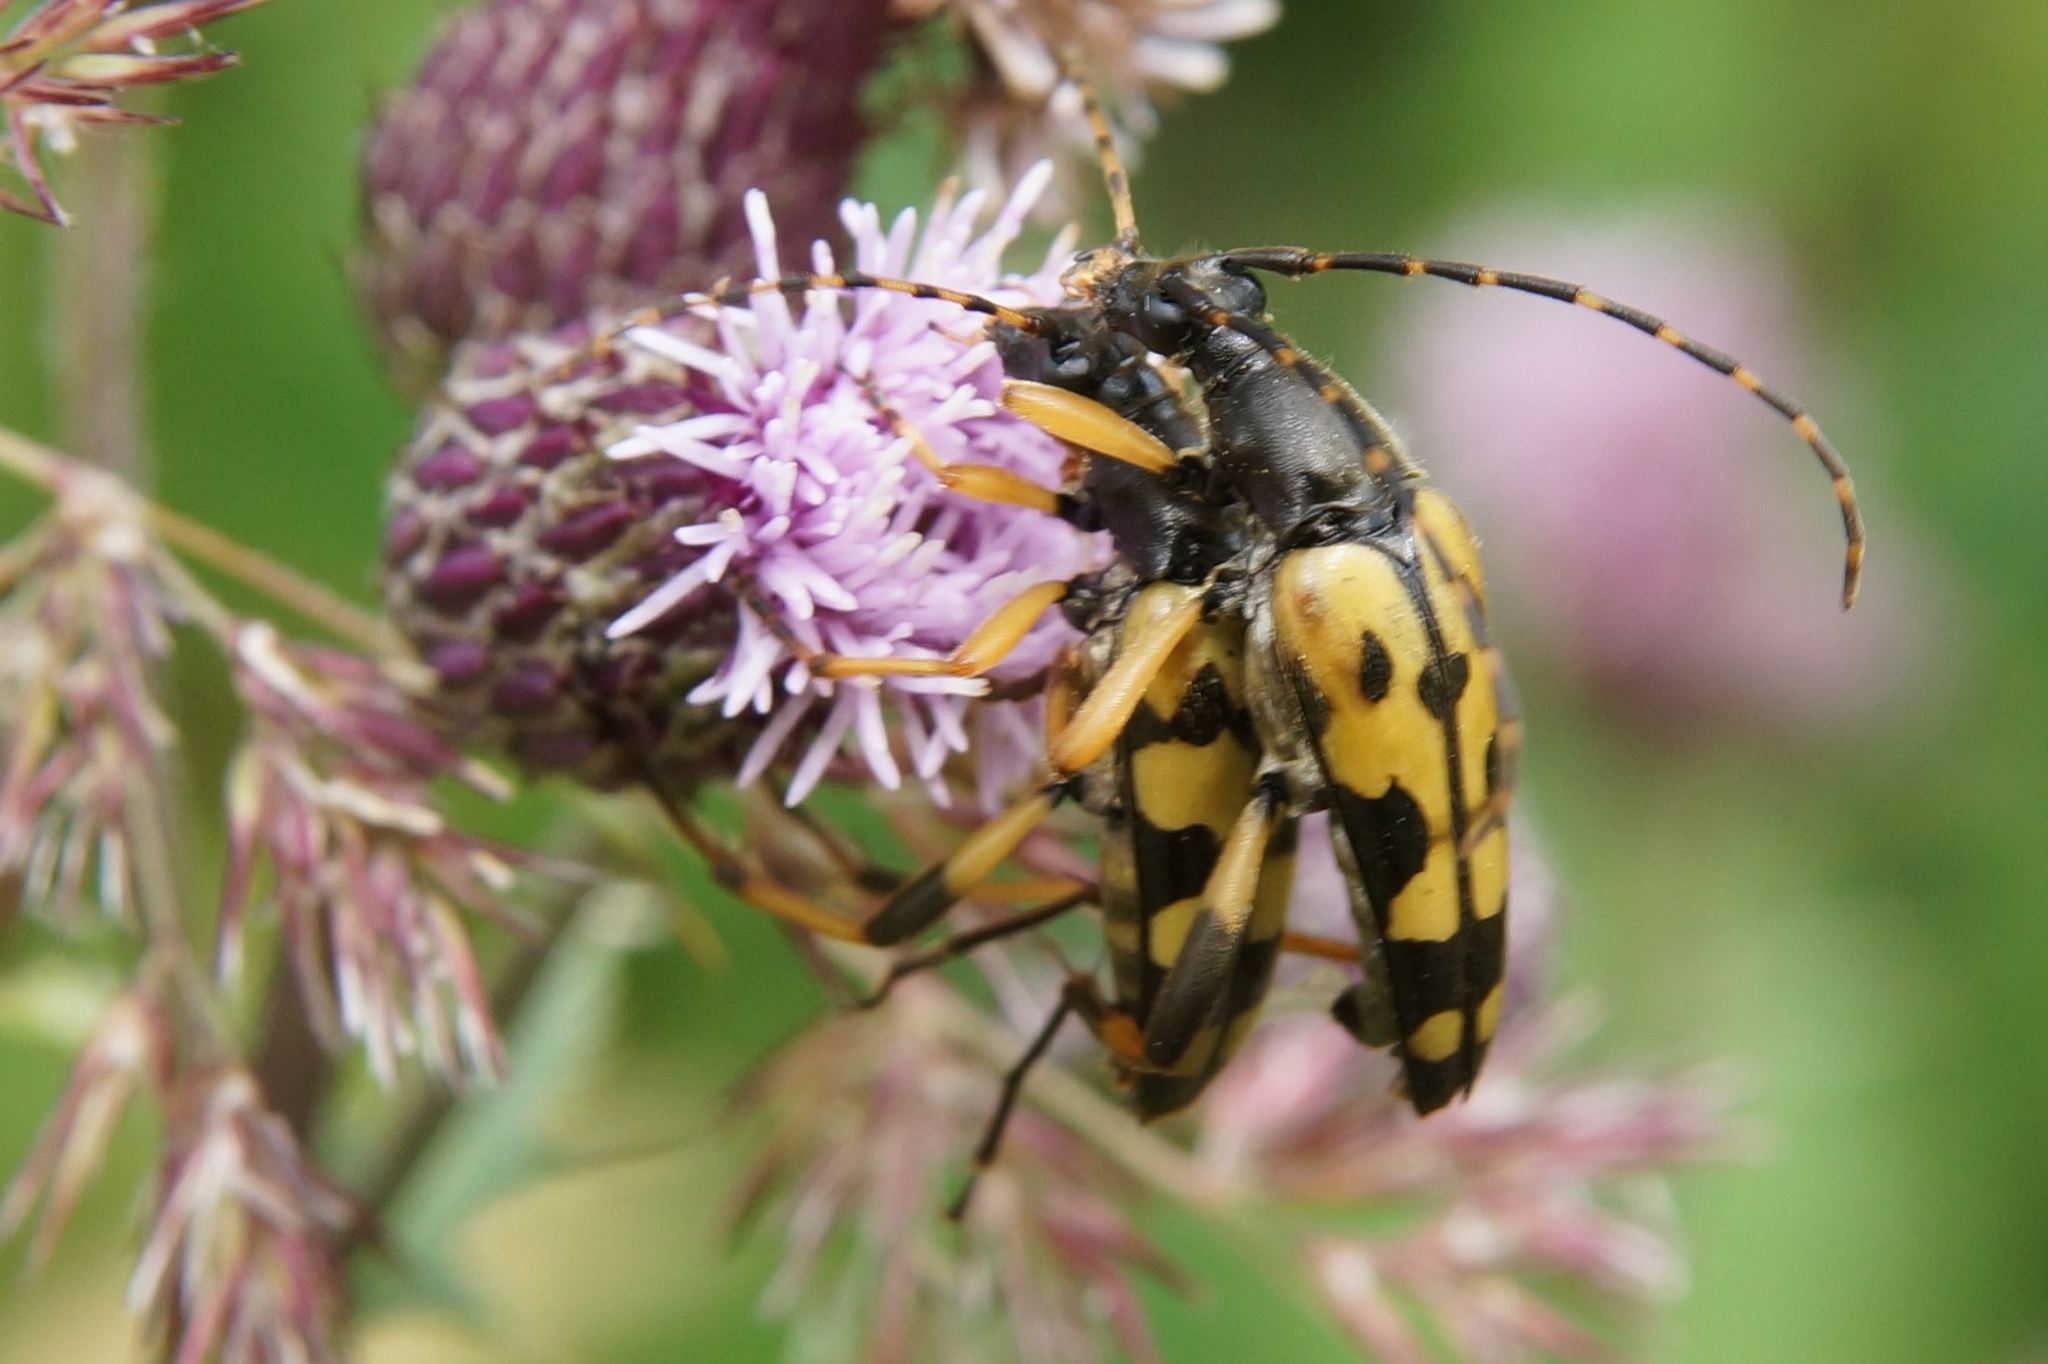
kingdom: Animalia
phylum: Arthropoda
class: Insecta
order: Coleoptera
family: Cerambycidae
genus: Rutpela
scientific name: Rutpela maculata
